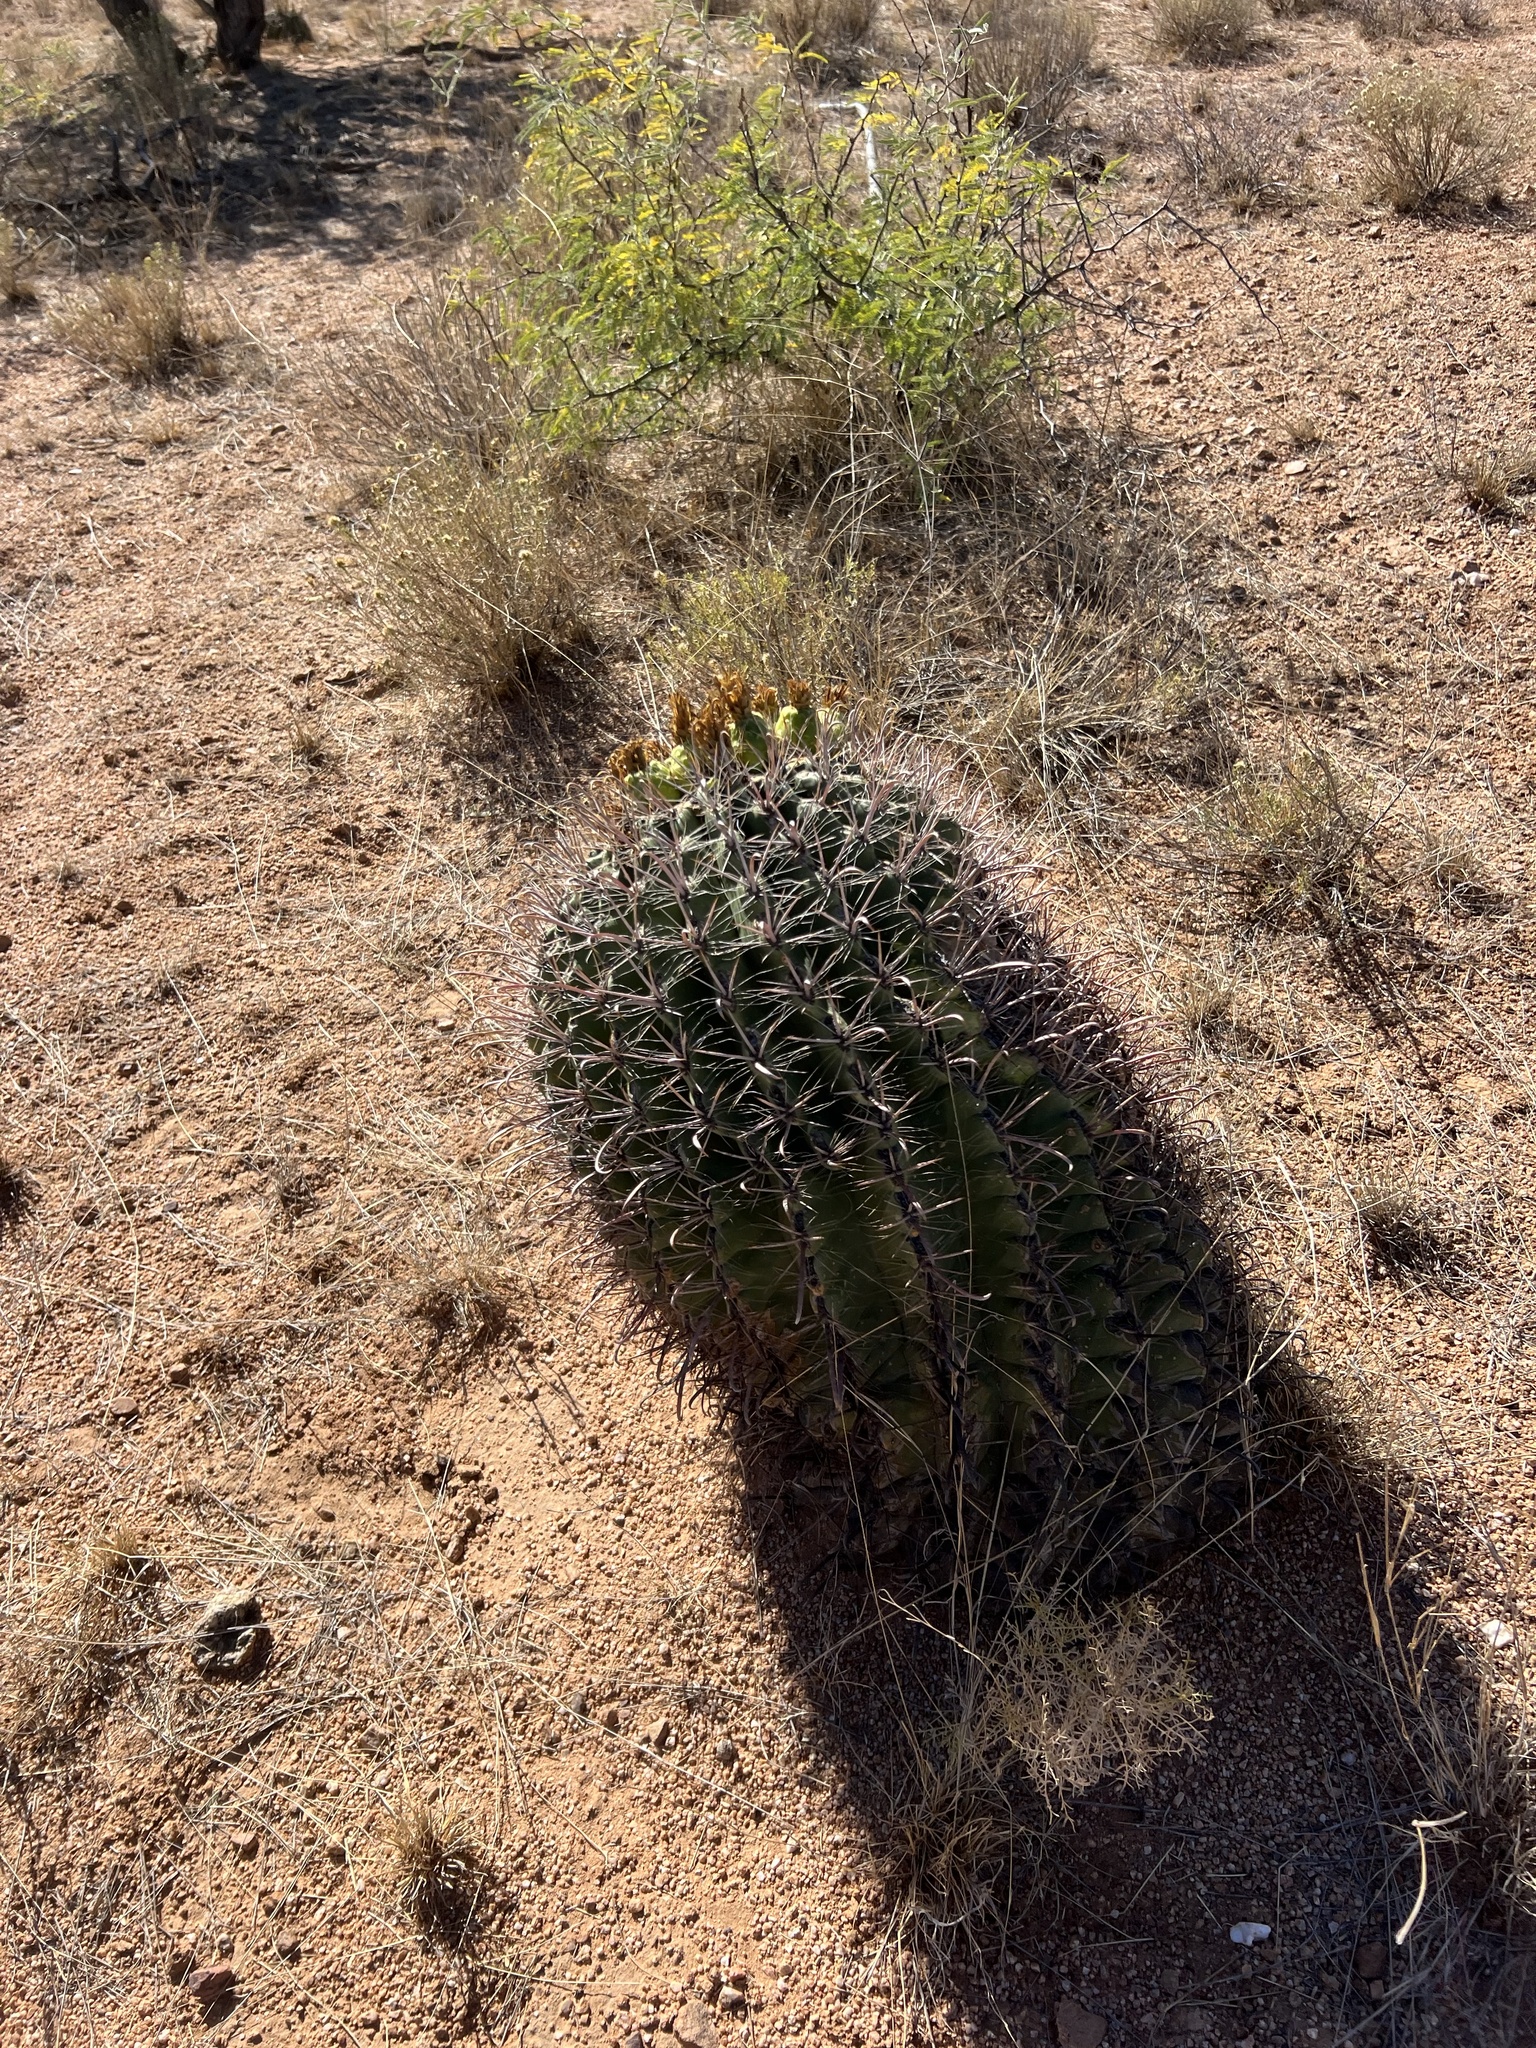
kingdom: Plantae
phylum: Tracheophyta
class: Magnoliopsida
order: Caryophyllales
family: Cactaceae
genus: Ferocactus
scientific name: Ferocactus wislizeni
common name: Candy barrel cactus
